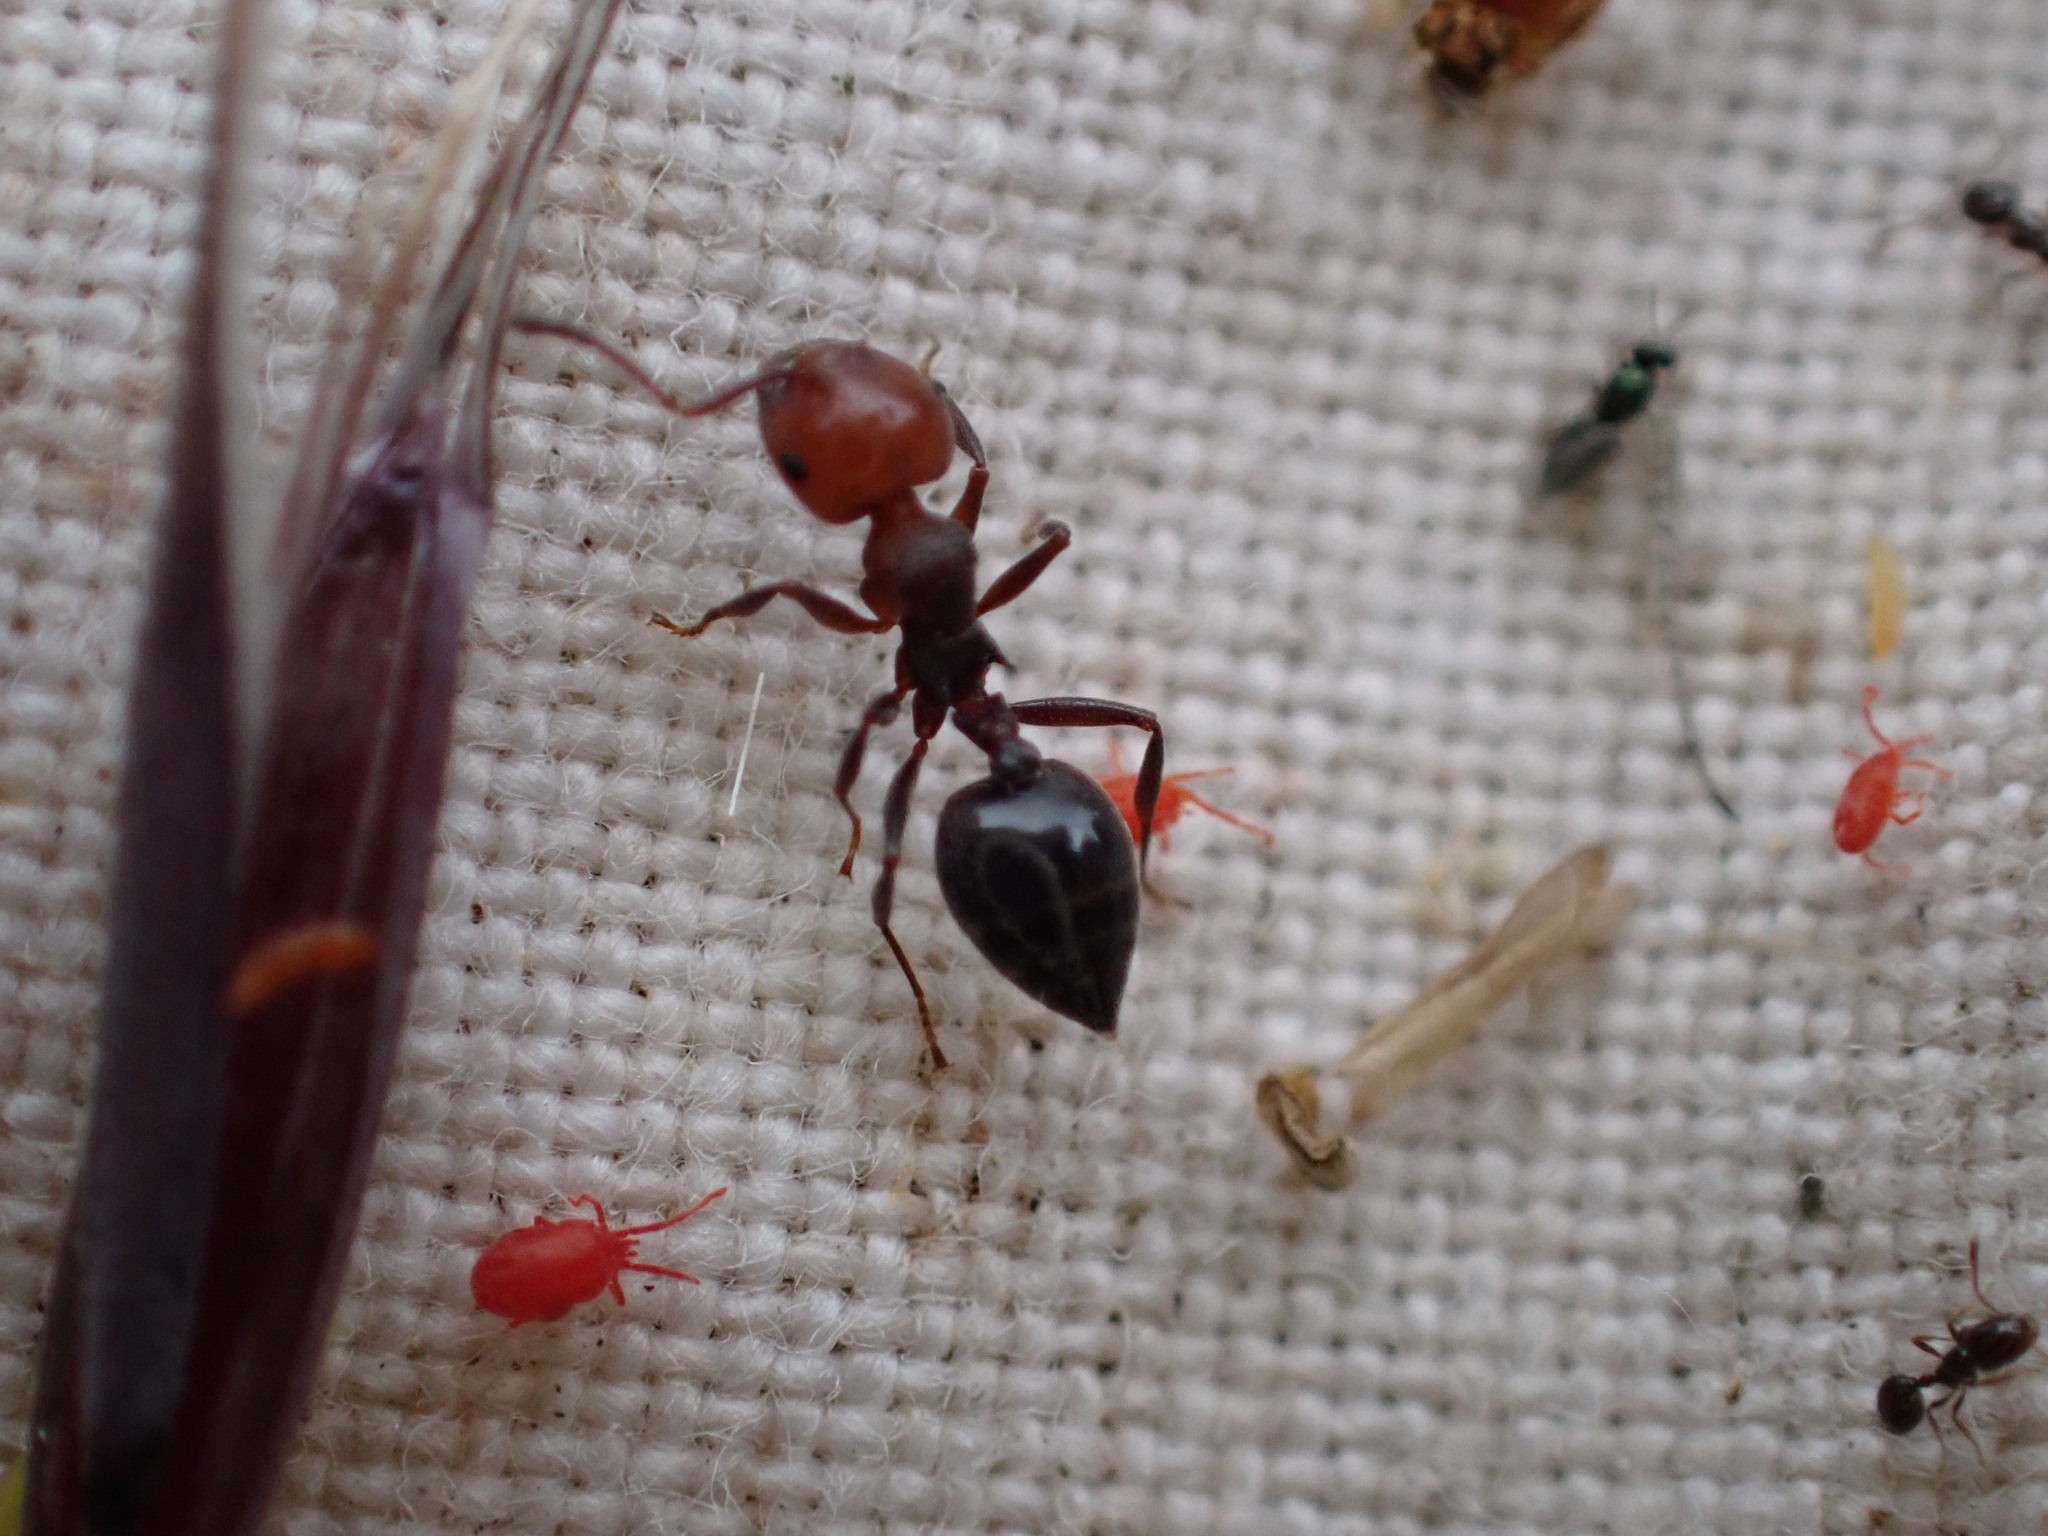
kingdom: Animalia
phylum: Arthropoda
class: Insecta
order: Hymenoptera
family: Formicidae
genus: Crematogaster
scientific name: Crematogaster scutellaris
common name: Fourmi du liège
